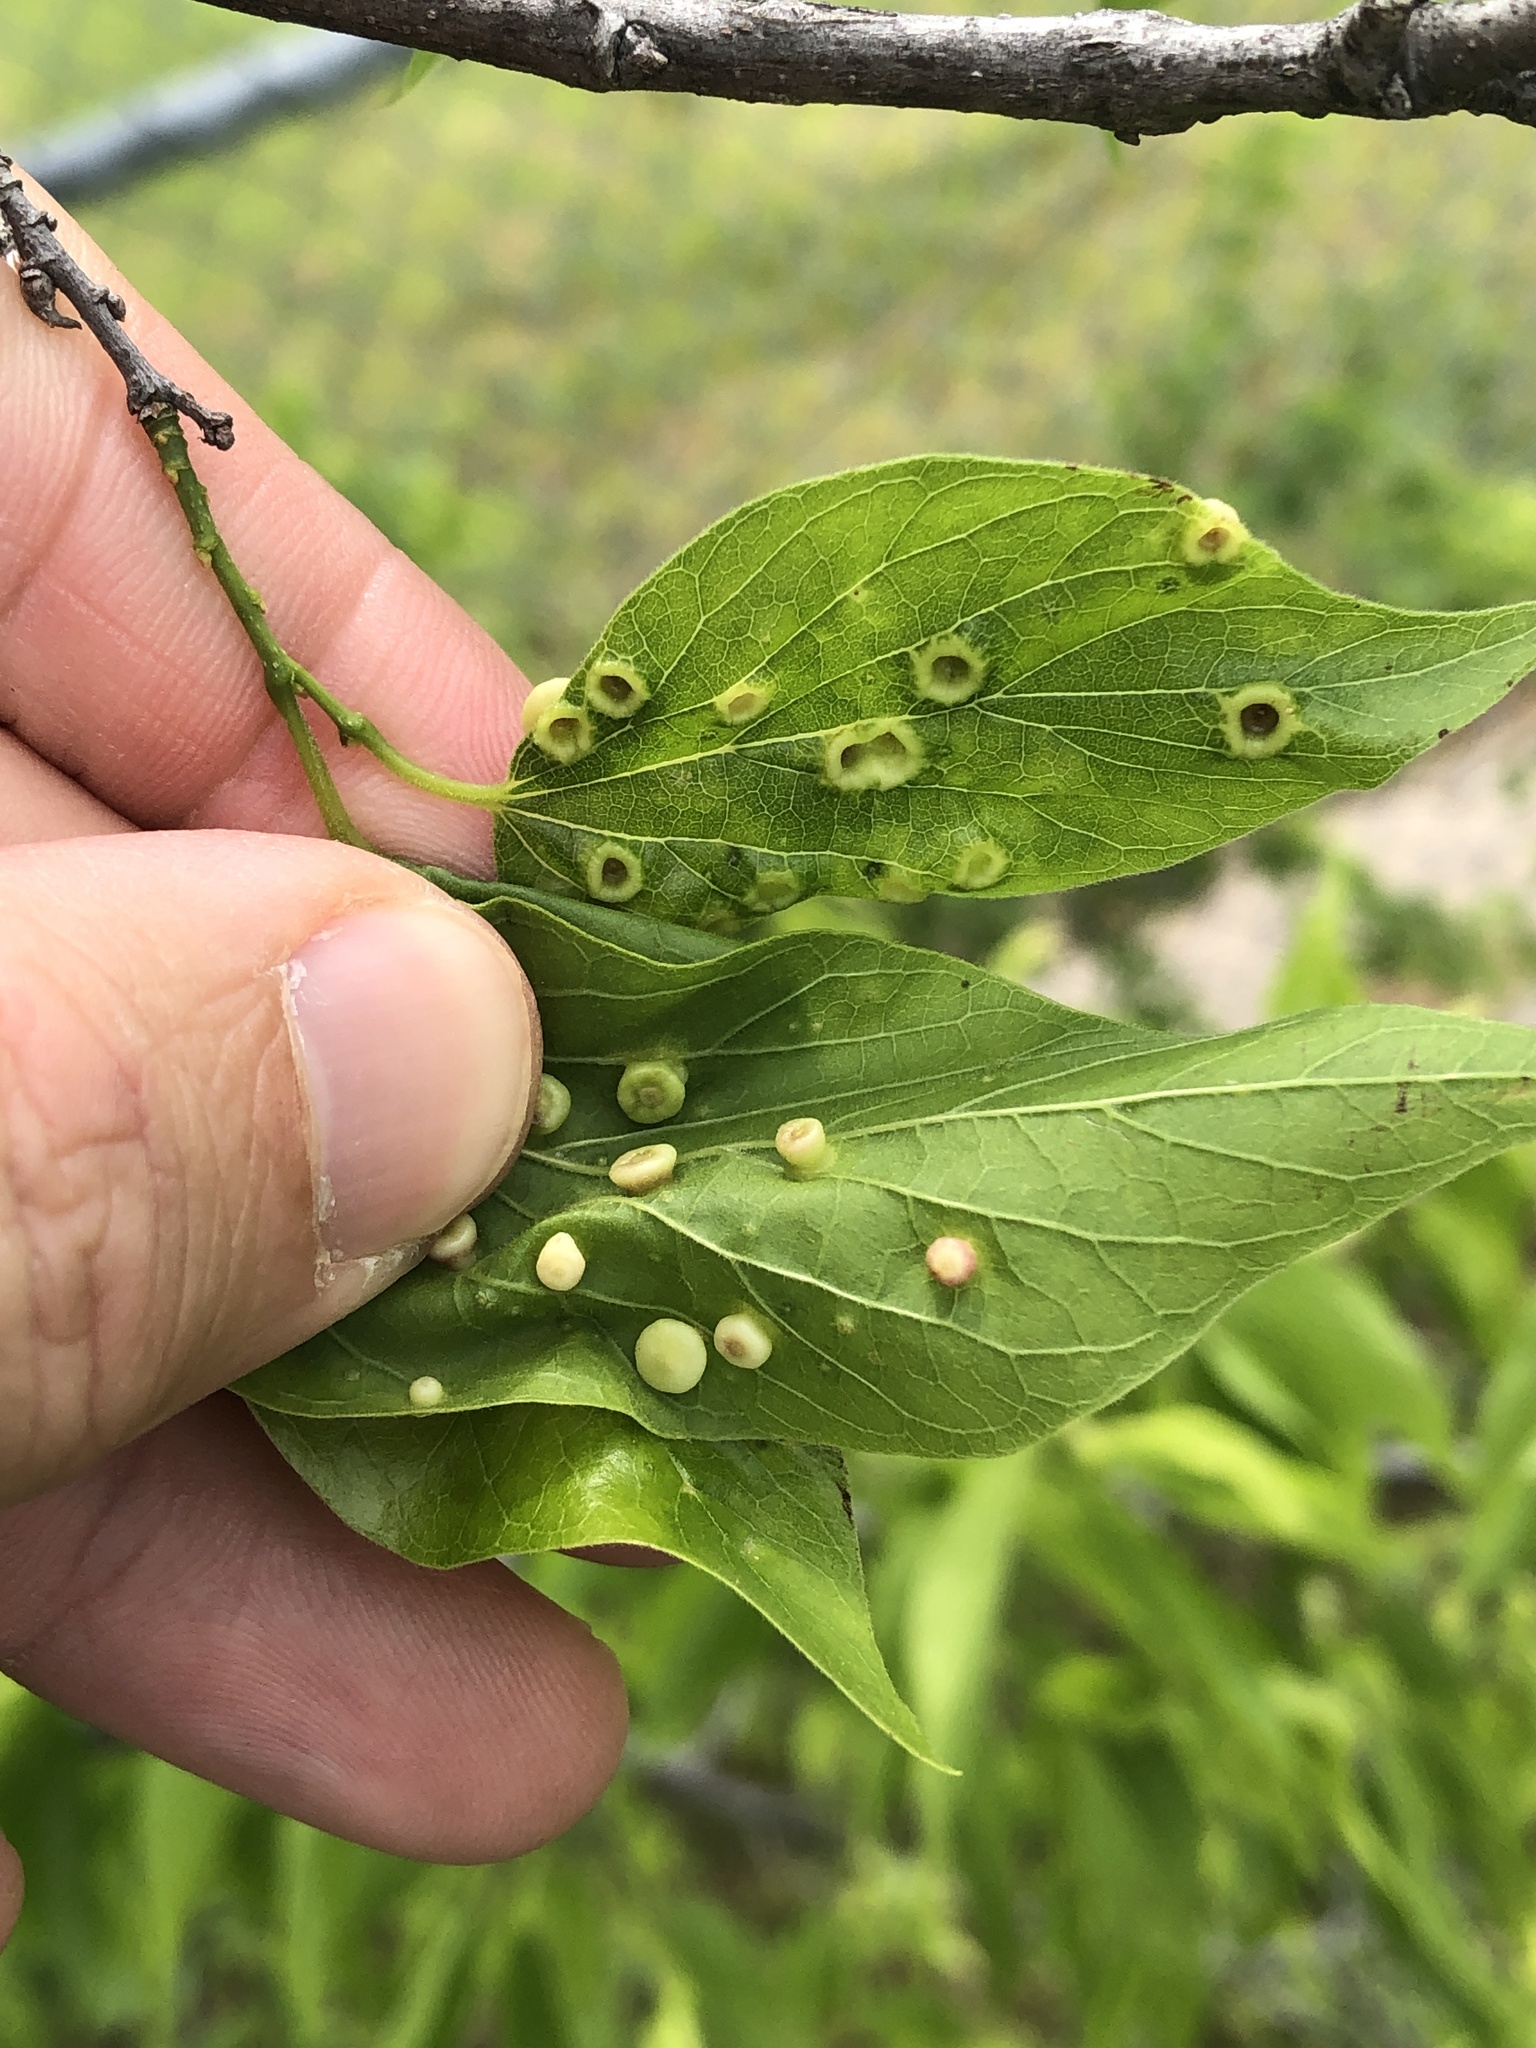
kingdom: Animalia
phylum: Arthropoda
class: Insecta
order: Hemiptera
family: Aphalaridae
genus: Pachypsylla
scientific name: Pachypsylla celtidismamma
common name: Hackberry nipplegall psyllid
